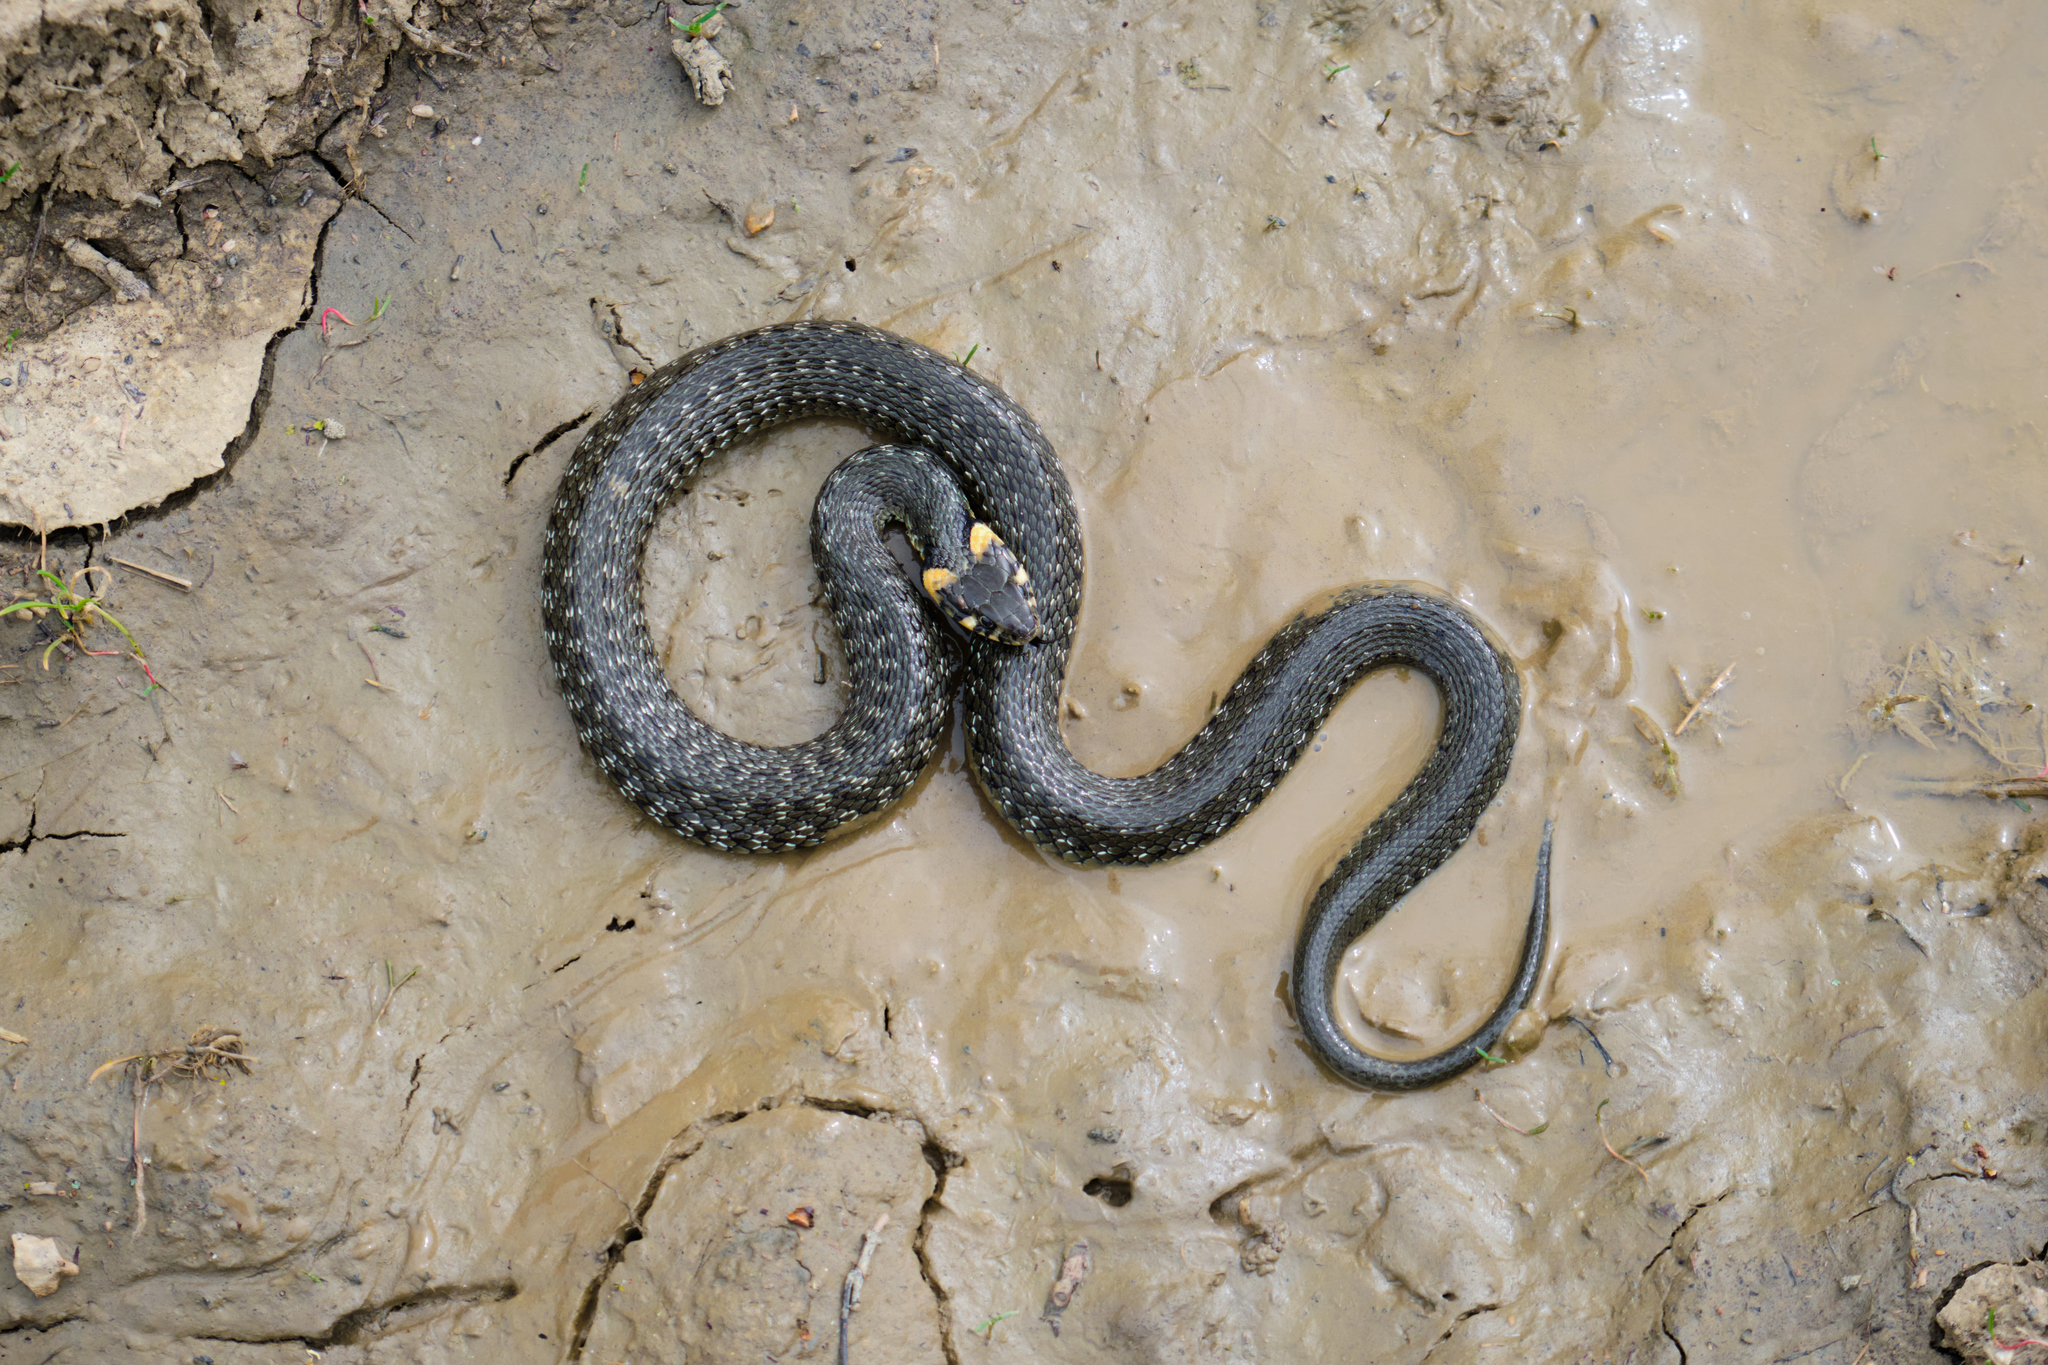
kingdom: Animalia
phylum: Chordata
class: Squamata
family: Colubridae
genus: Natrix
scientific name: Natrix natrix
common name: Grass snake
